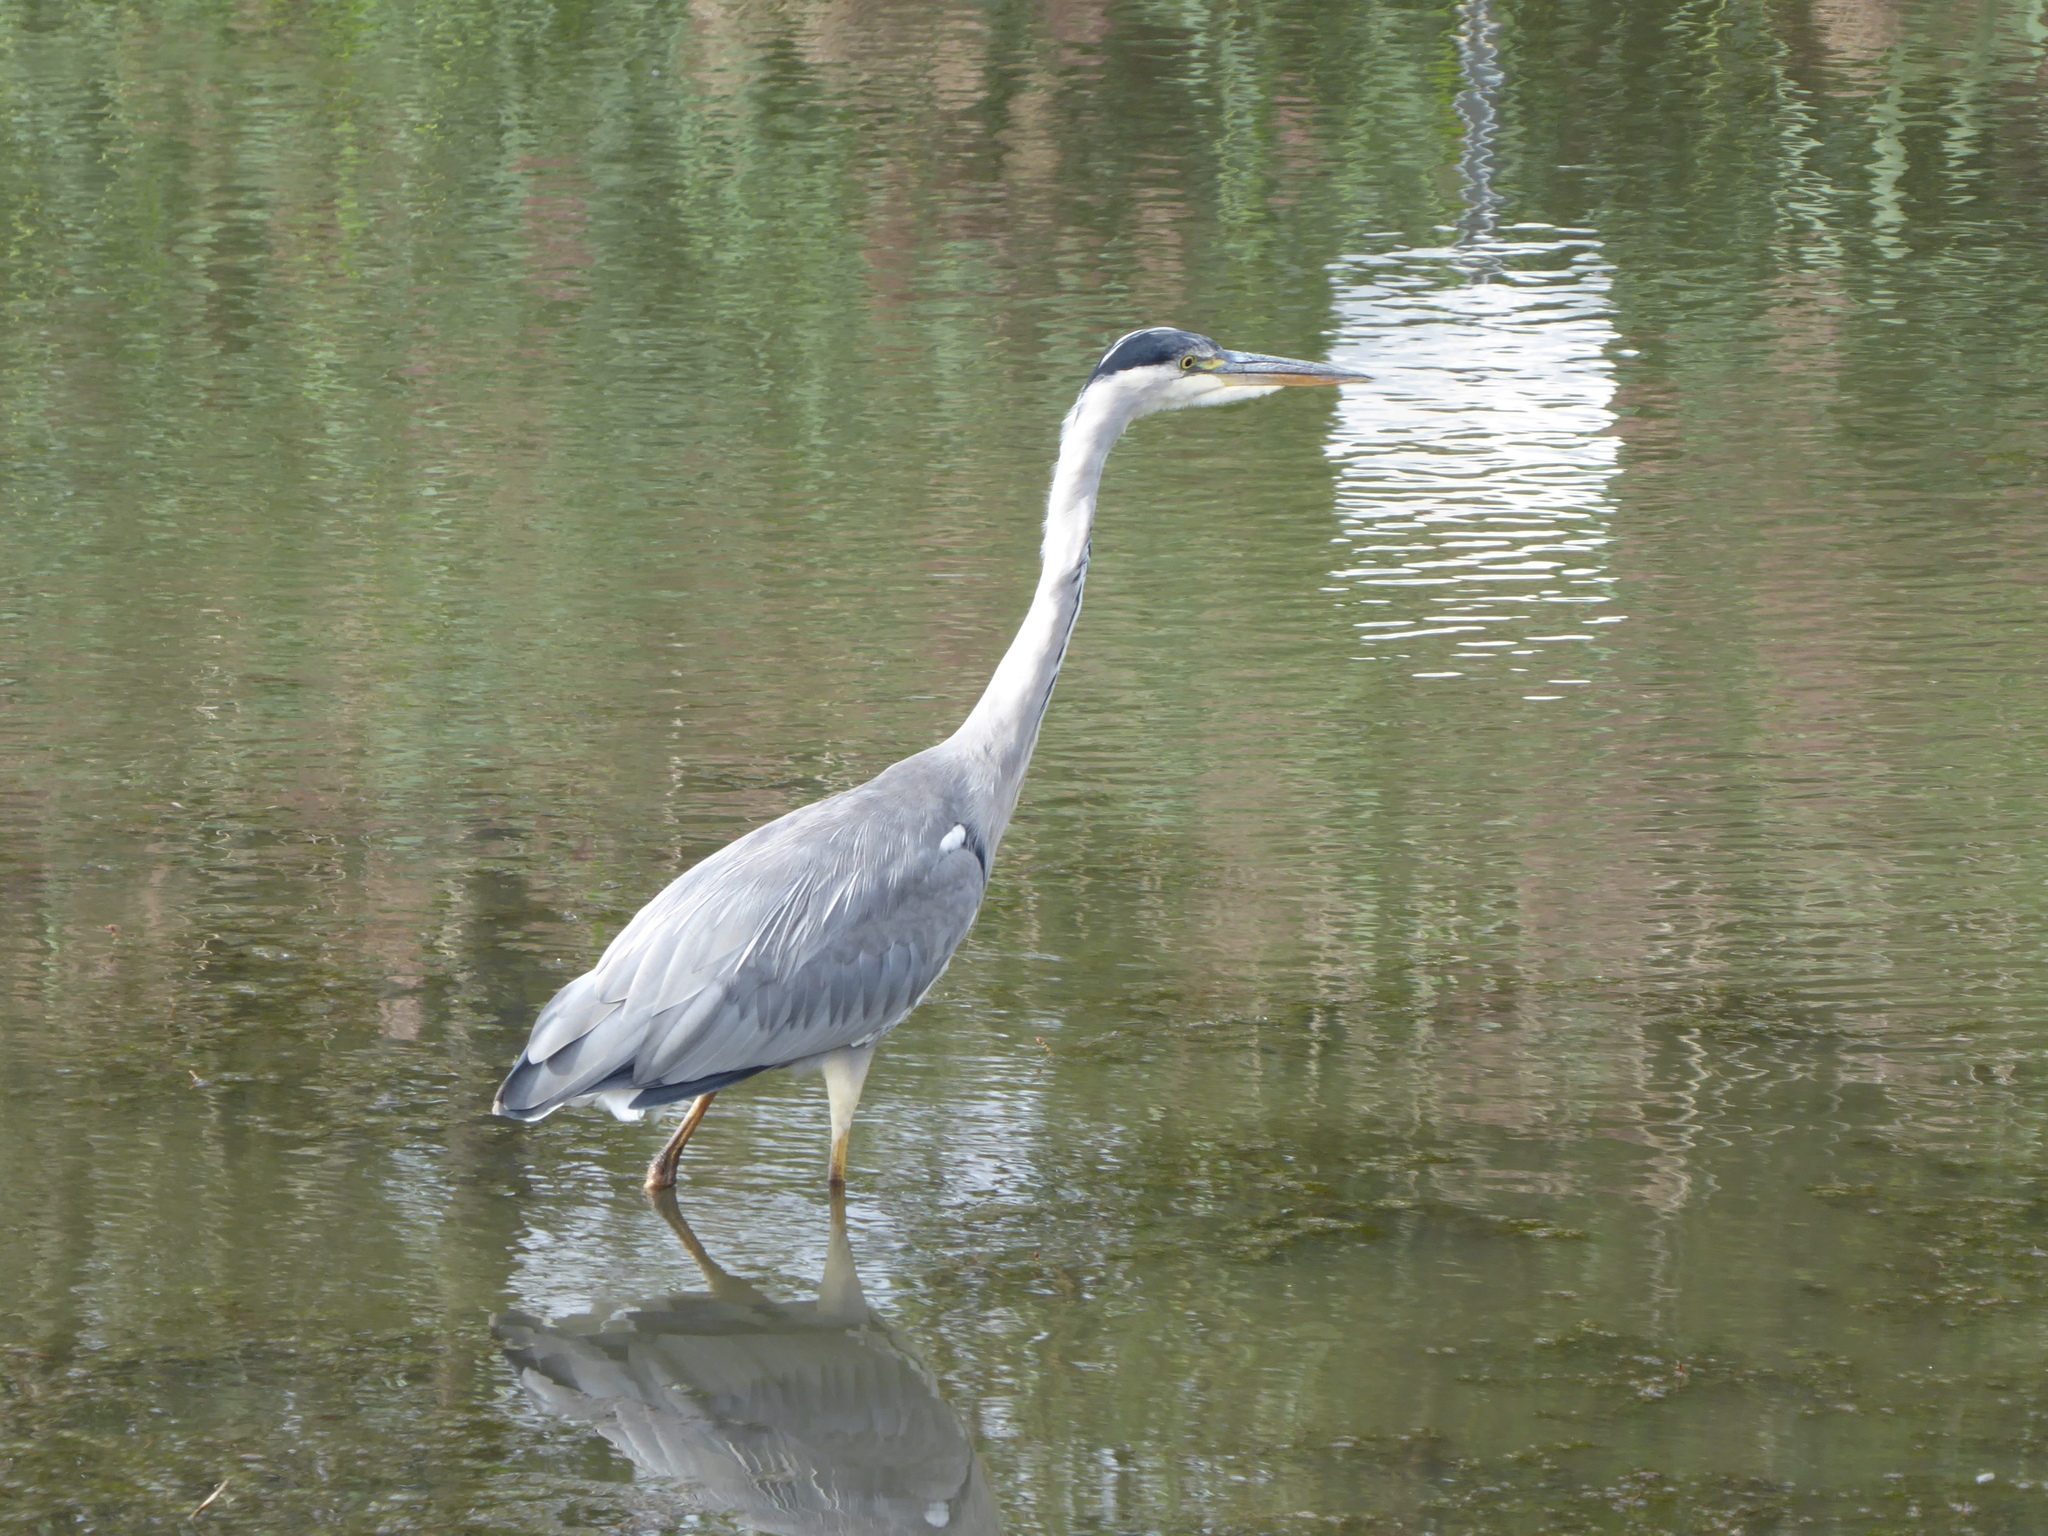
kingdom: Animalia
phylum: Chordata
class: Aves
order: Pelecaniformes
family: Ardeidae
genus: Ardea
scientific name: Ardea cinerea
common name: Grey heron
